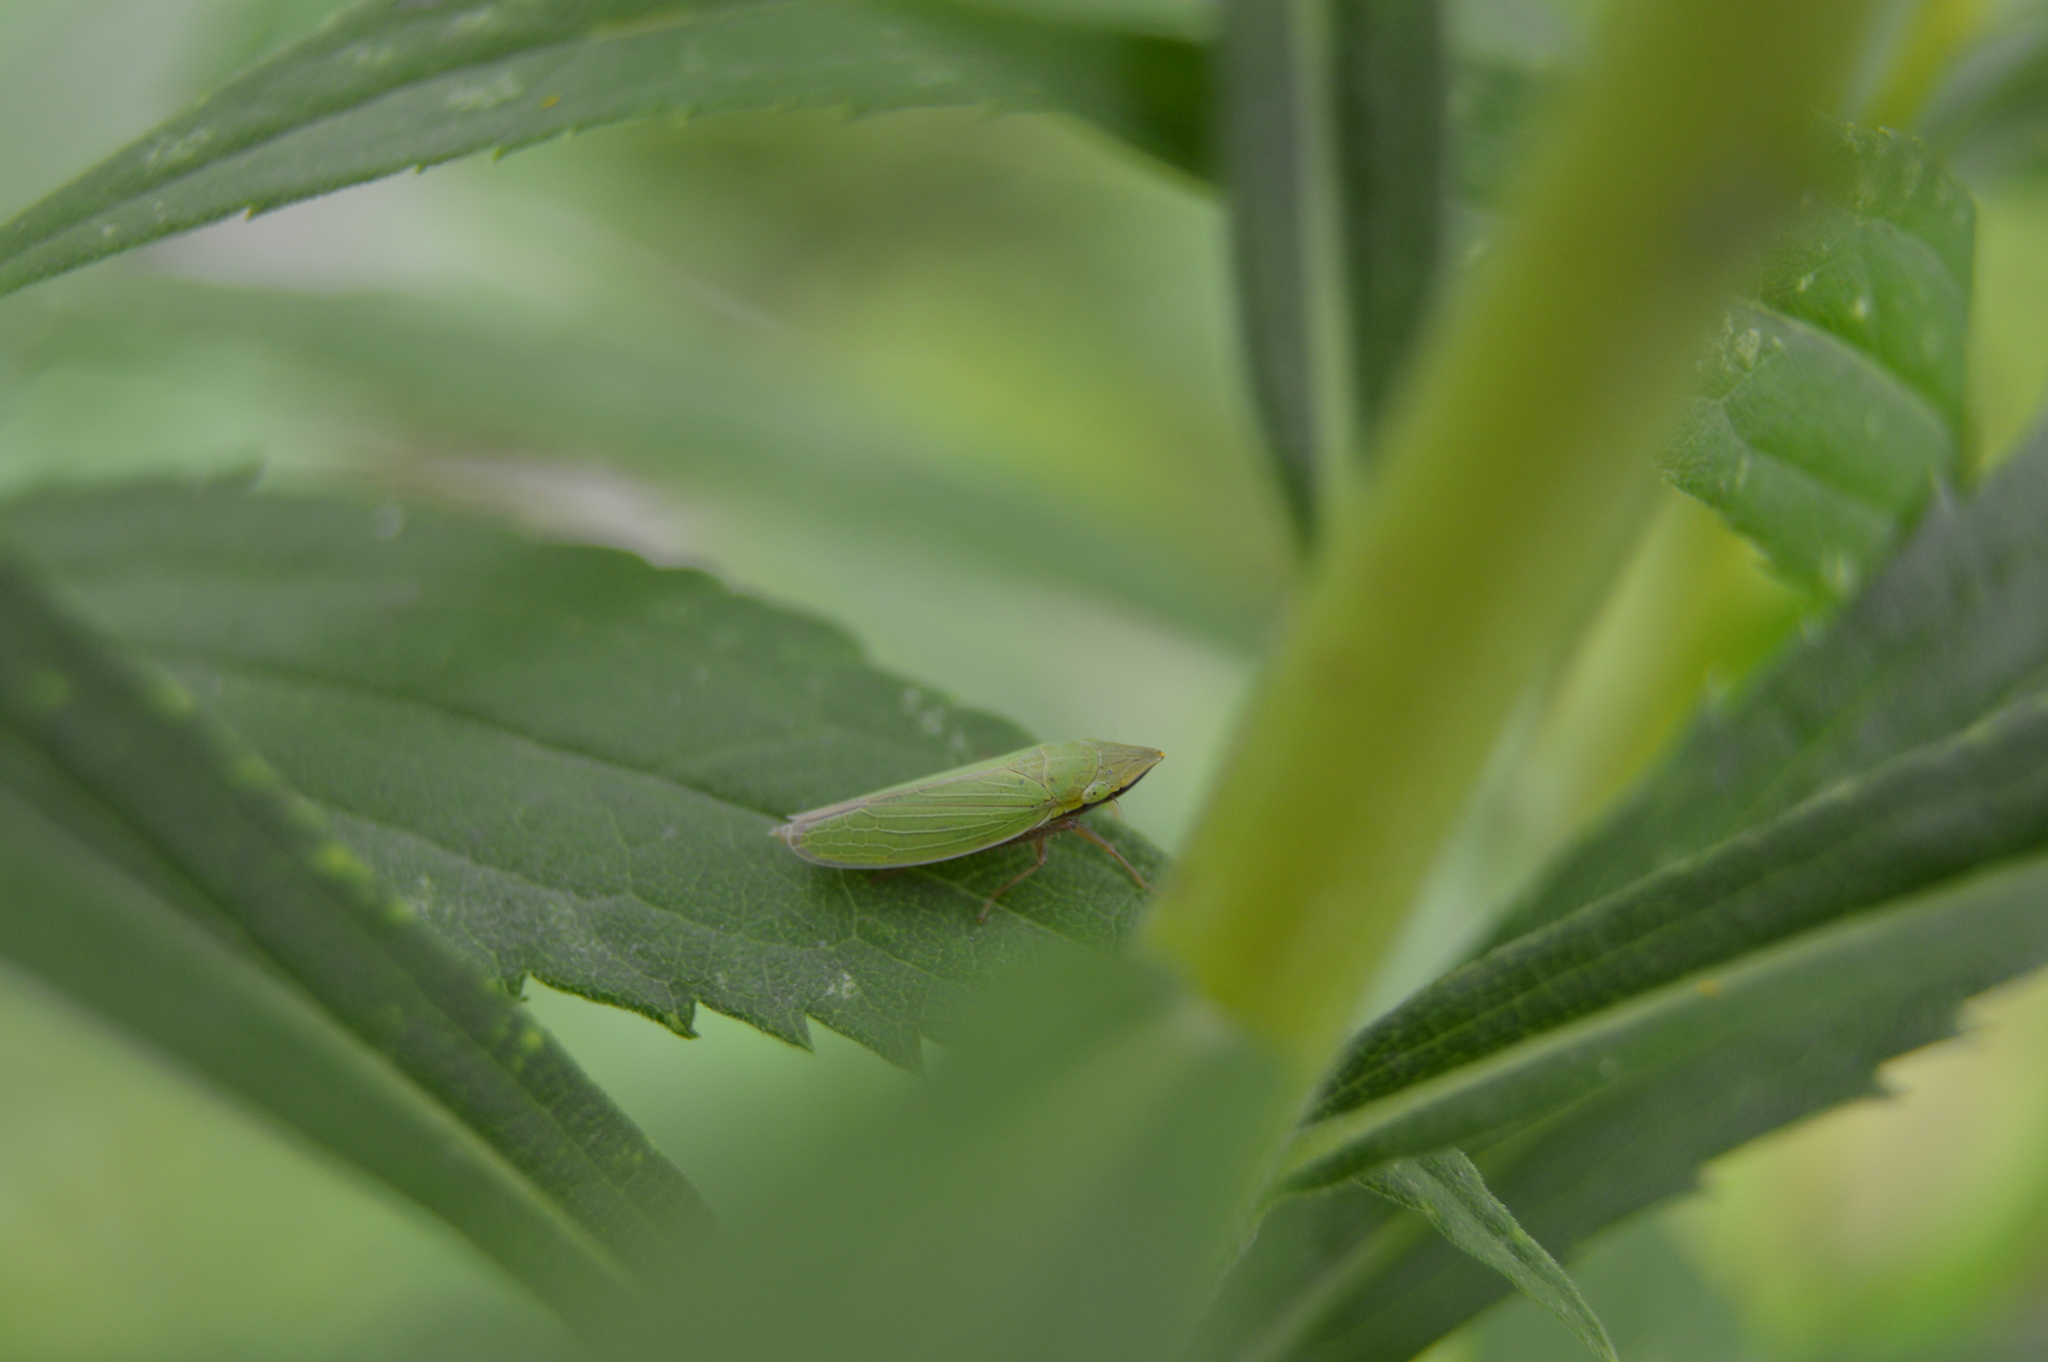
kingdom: Animalia
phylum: Arthropoda
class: Insecta
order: Hemiptera
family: Cicadellidae
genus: Draeculacephala
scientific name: Draeculacephala
